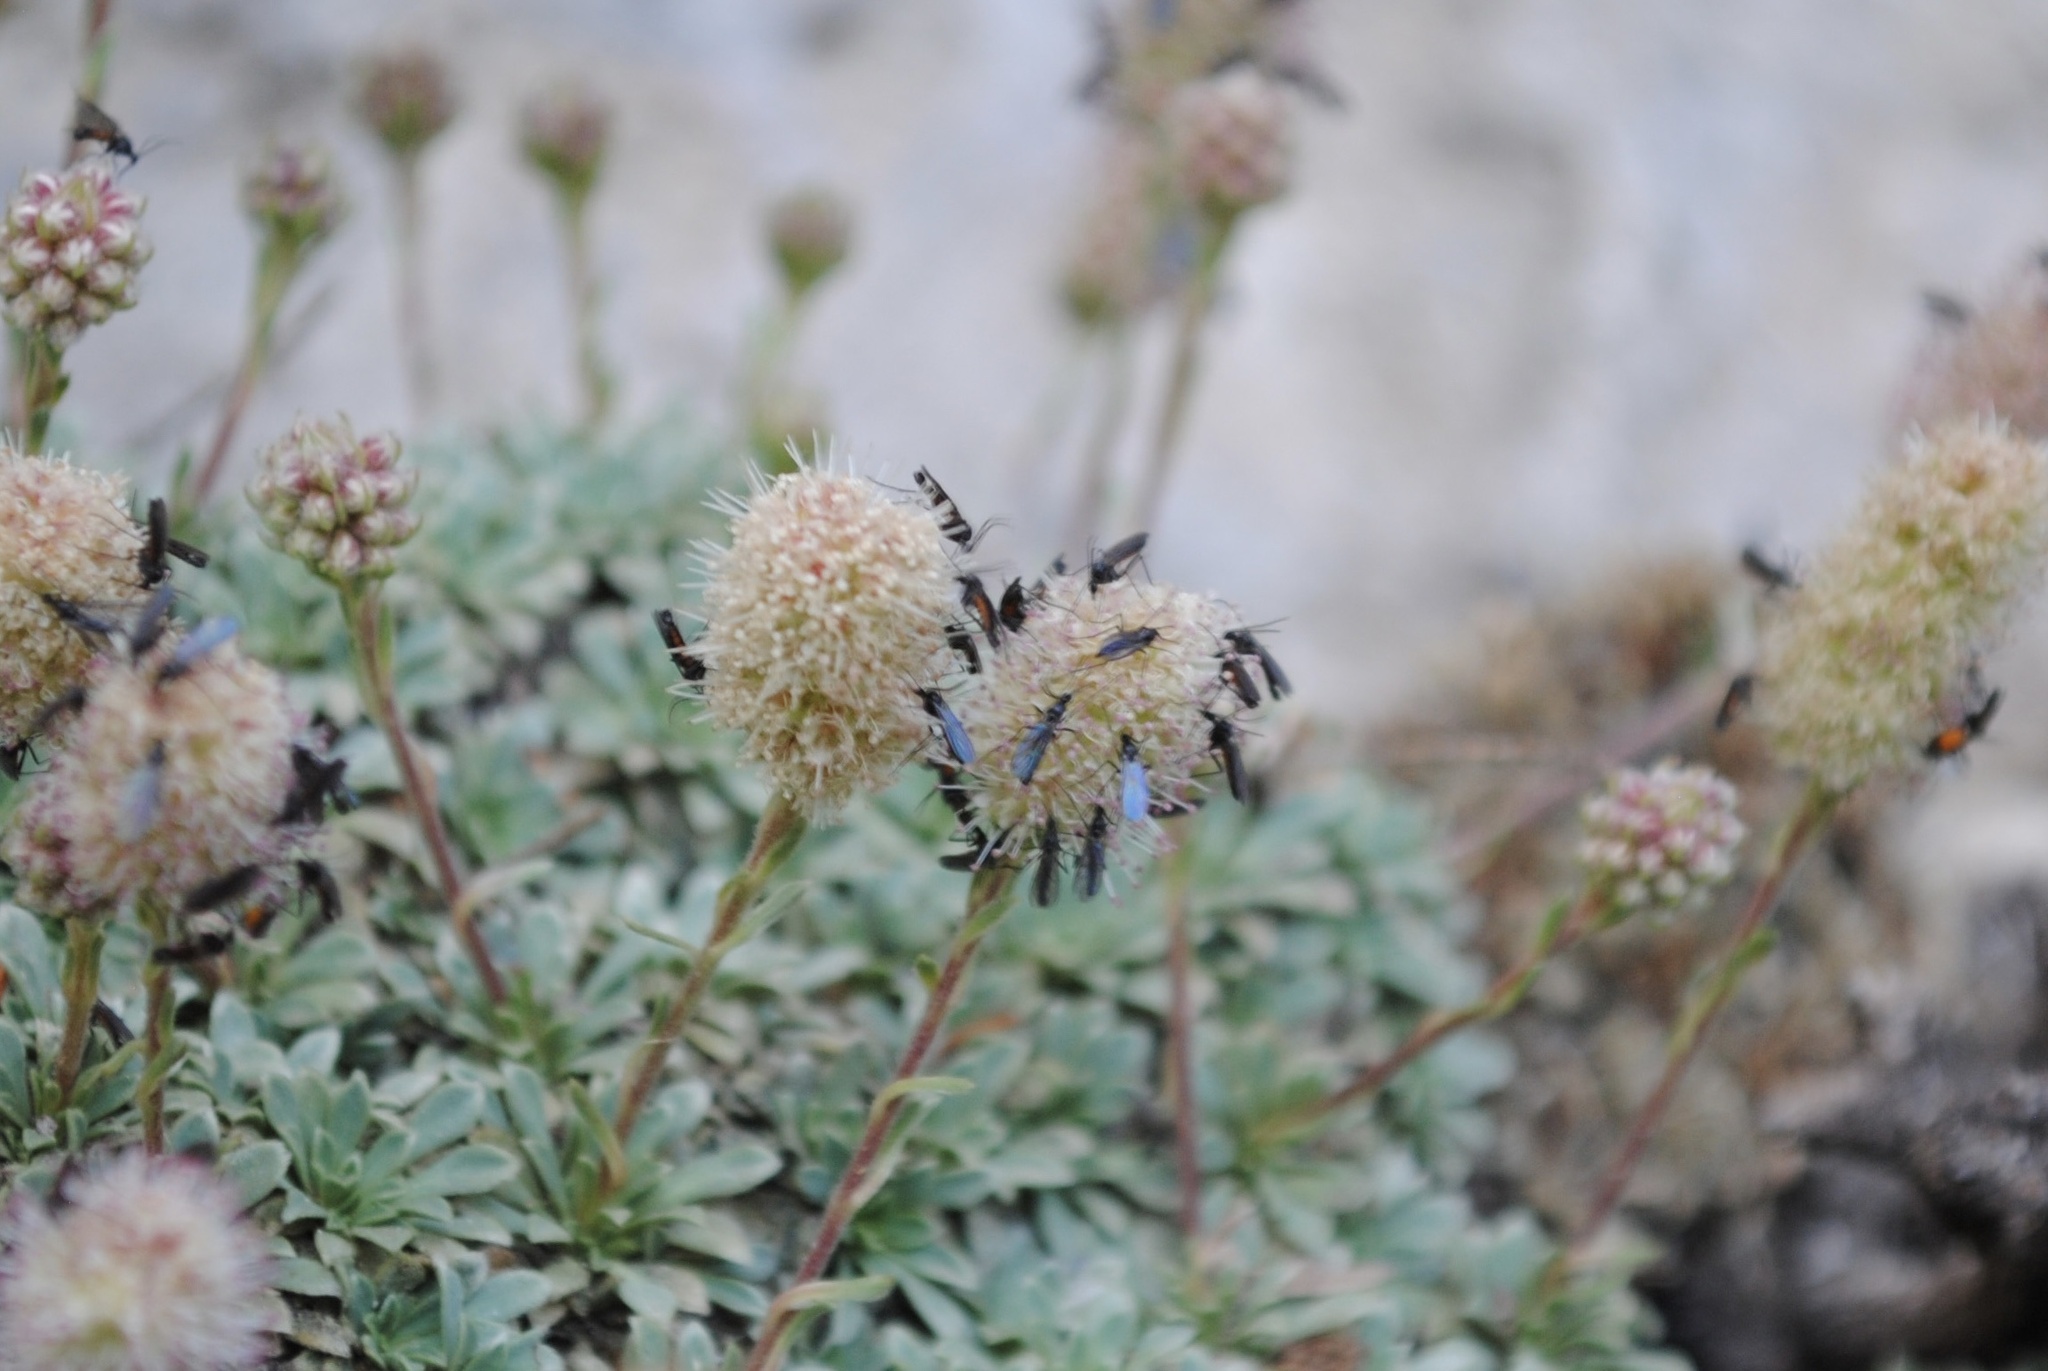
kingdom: Plantae
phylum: Tracheophyta
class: Magnoliopsida
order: Rosales
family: Rosaceae
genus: Petrophytum
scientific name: Petrophytum caespitosum
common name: Mat rockspirea
